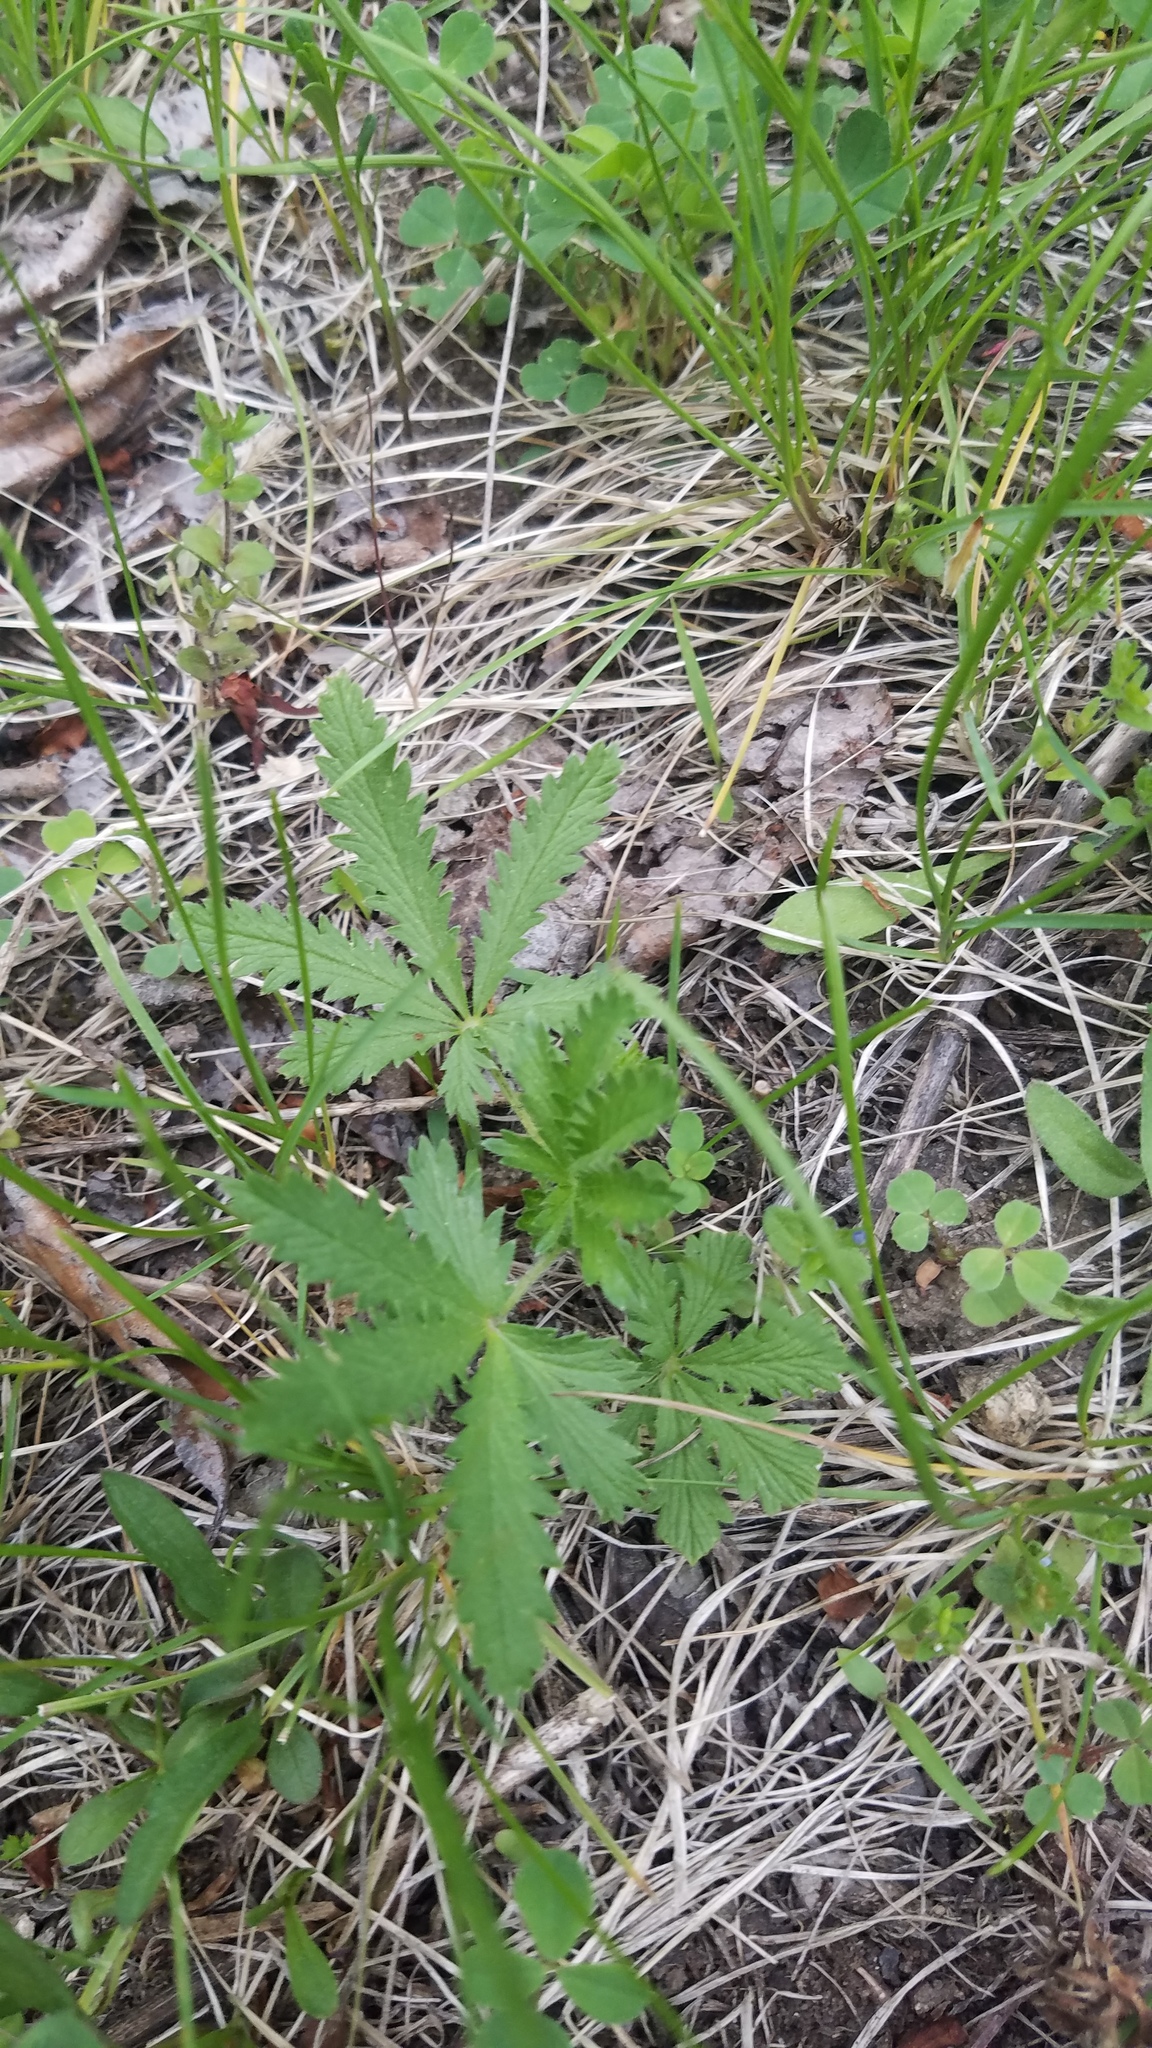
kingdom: Plantae
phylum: Tracheophyta
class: Magnoliopsida
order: Rosales
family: Rosaceae
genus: Potentilla
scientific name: Potentilla recta
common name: Sulphur cinquefoil
